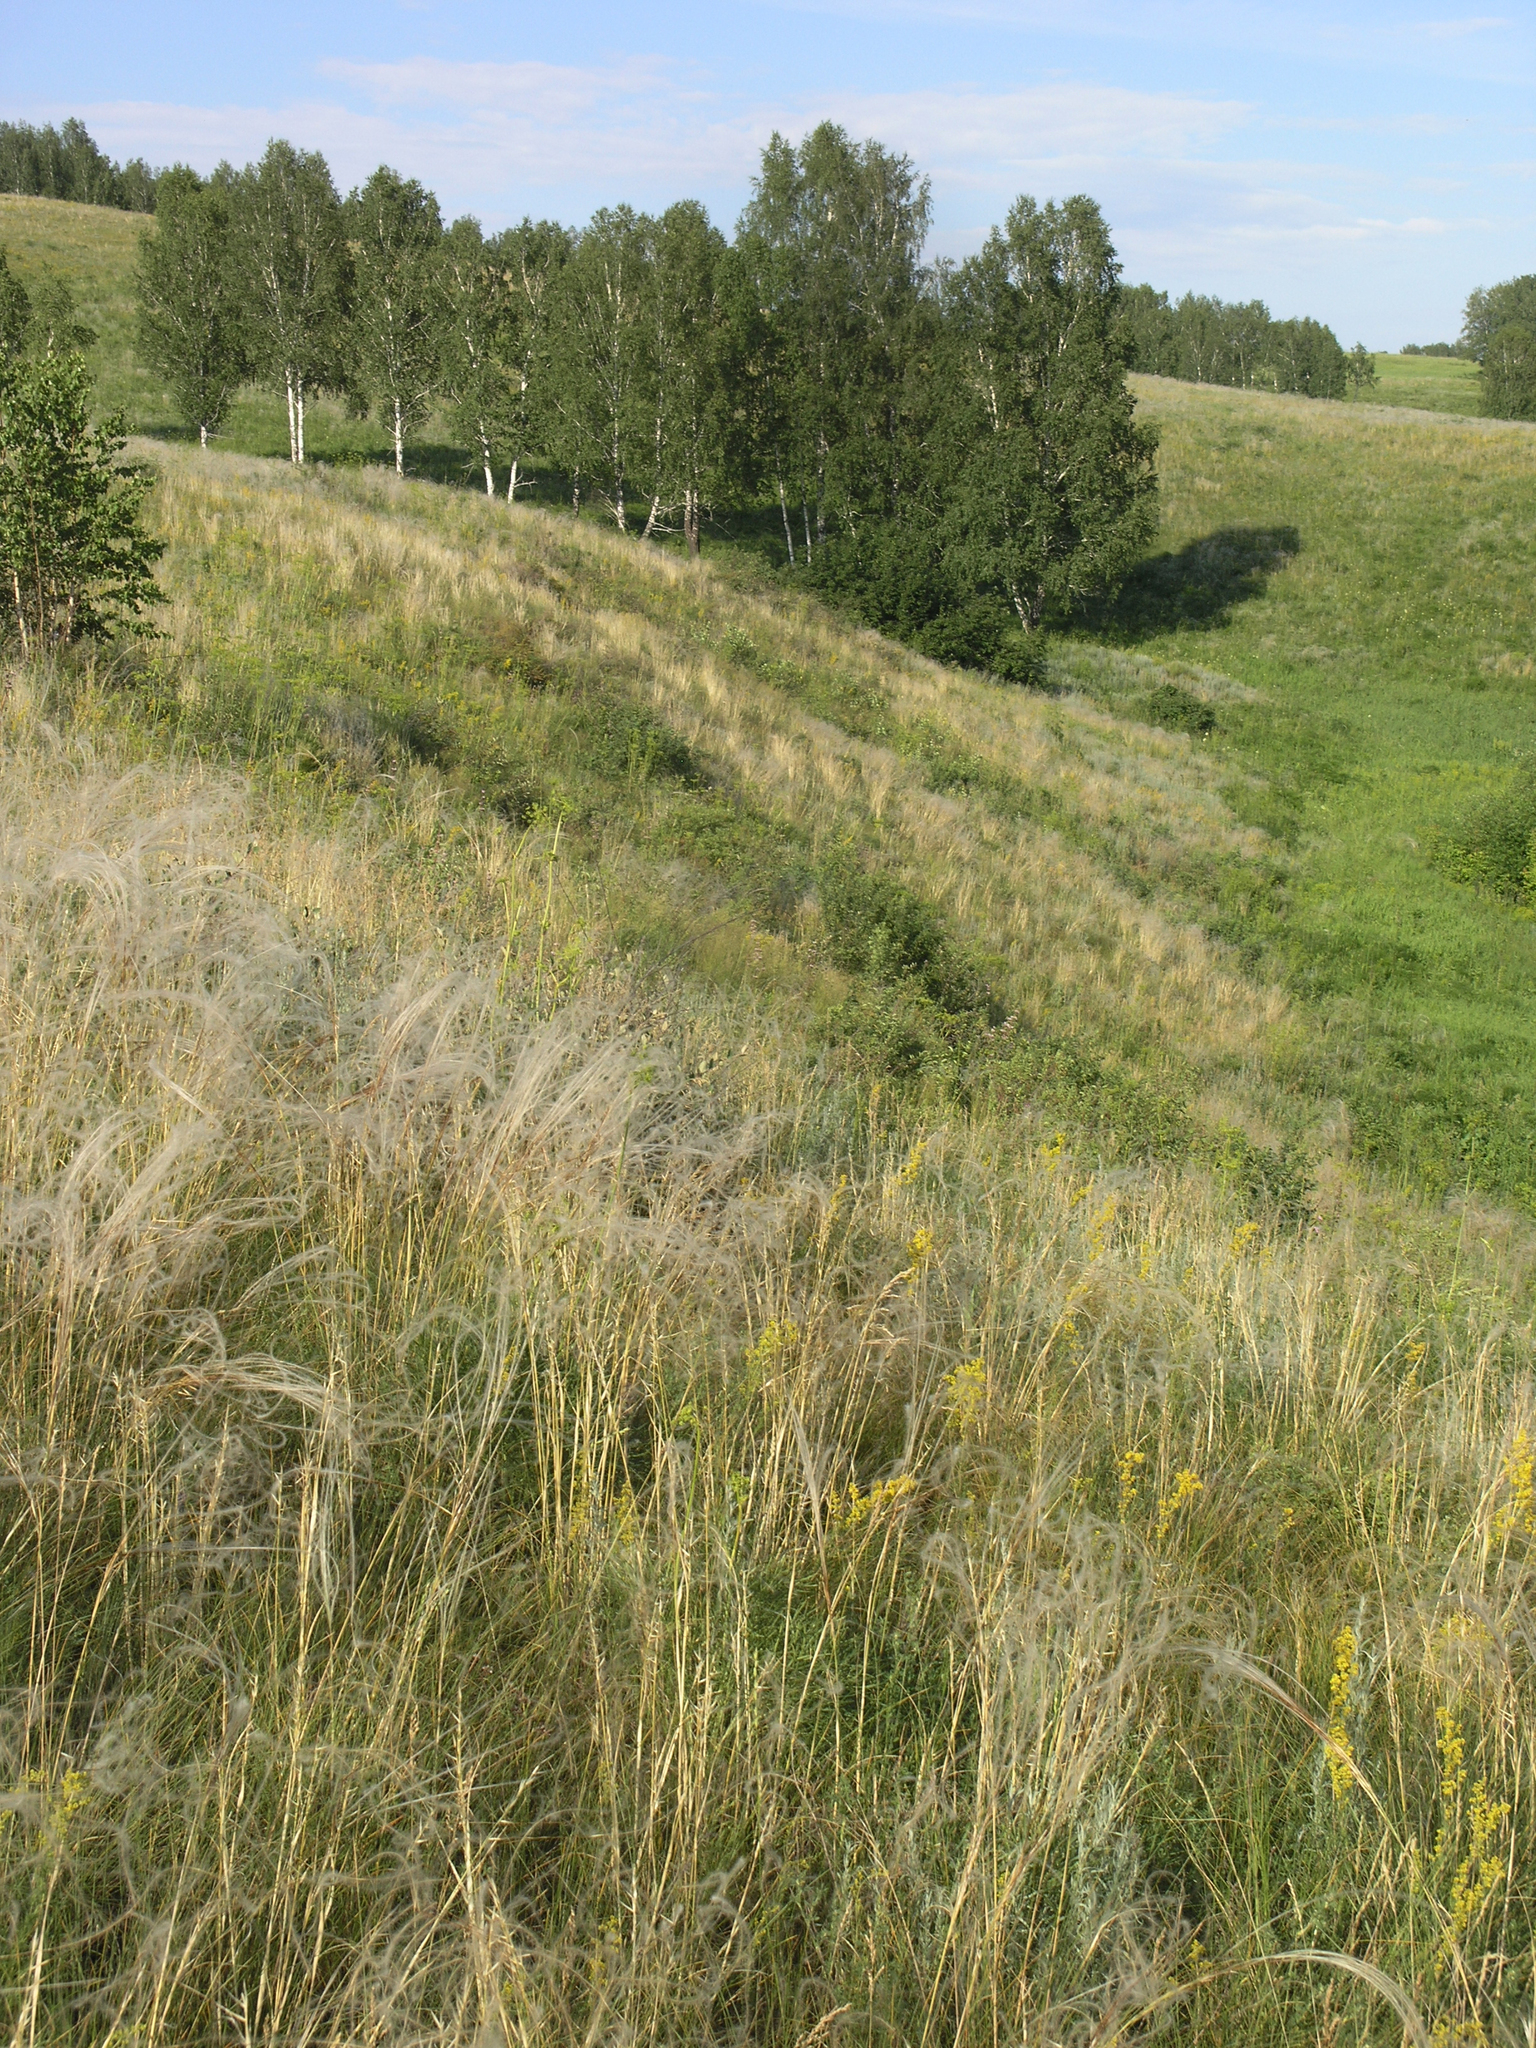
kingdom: Plantae
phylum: Tracheophyta
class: Liliopsida
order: Poales
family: Poaceae
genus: Stipa
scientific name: Stipa pennata
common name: European feather grass
